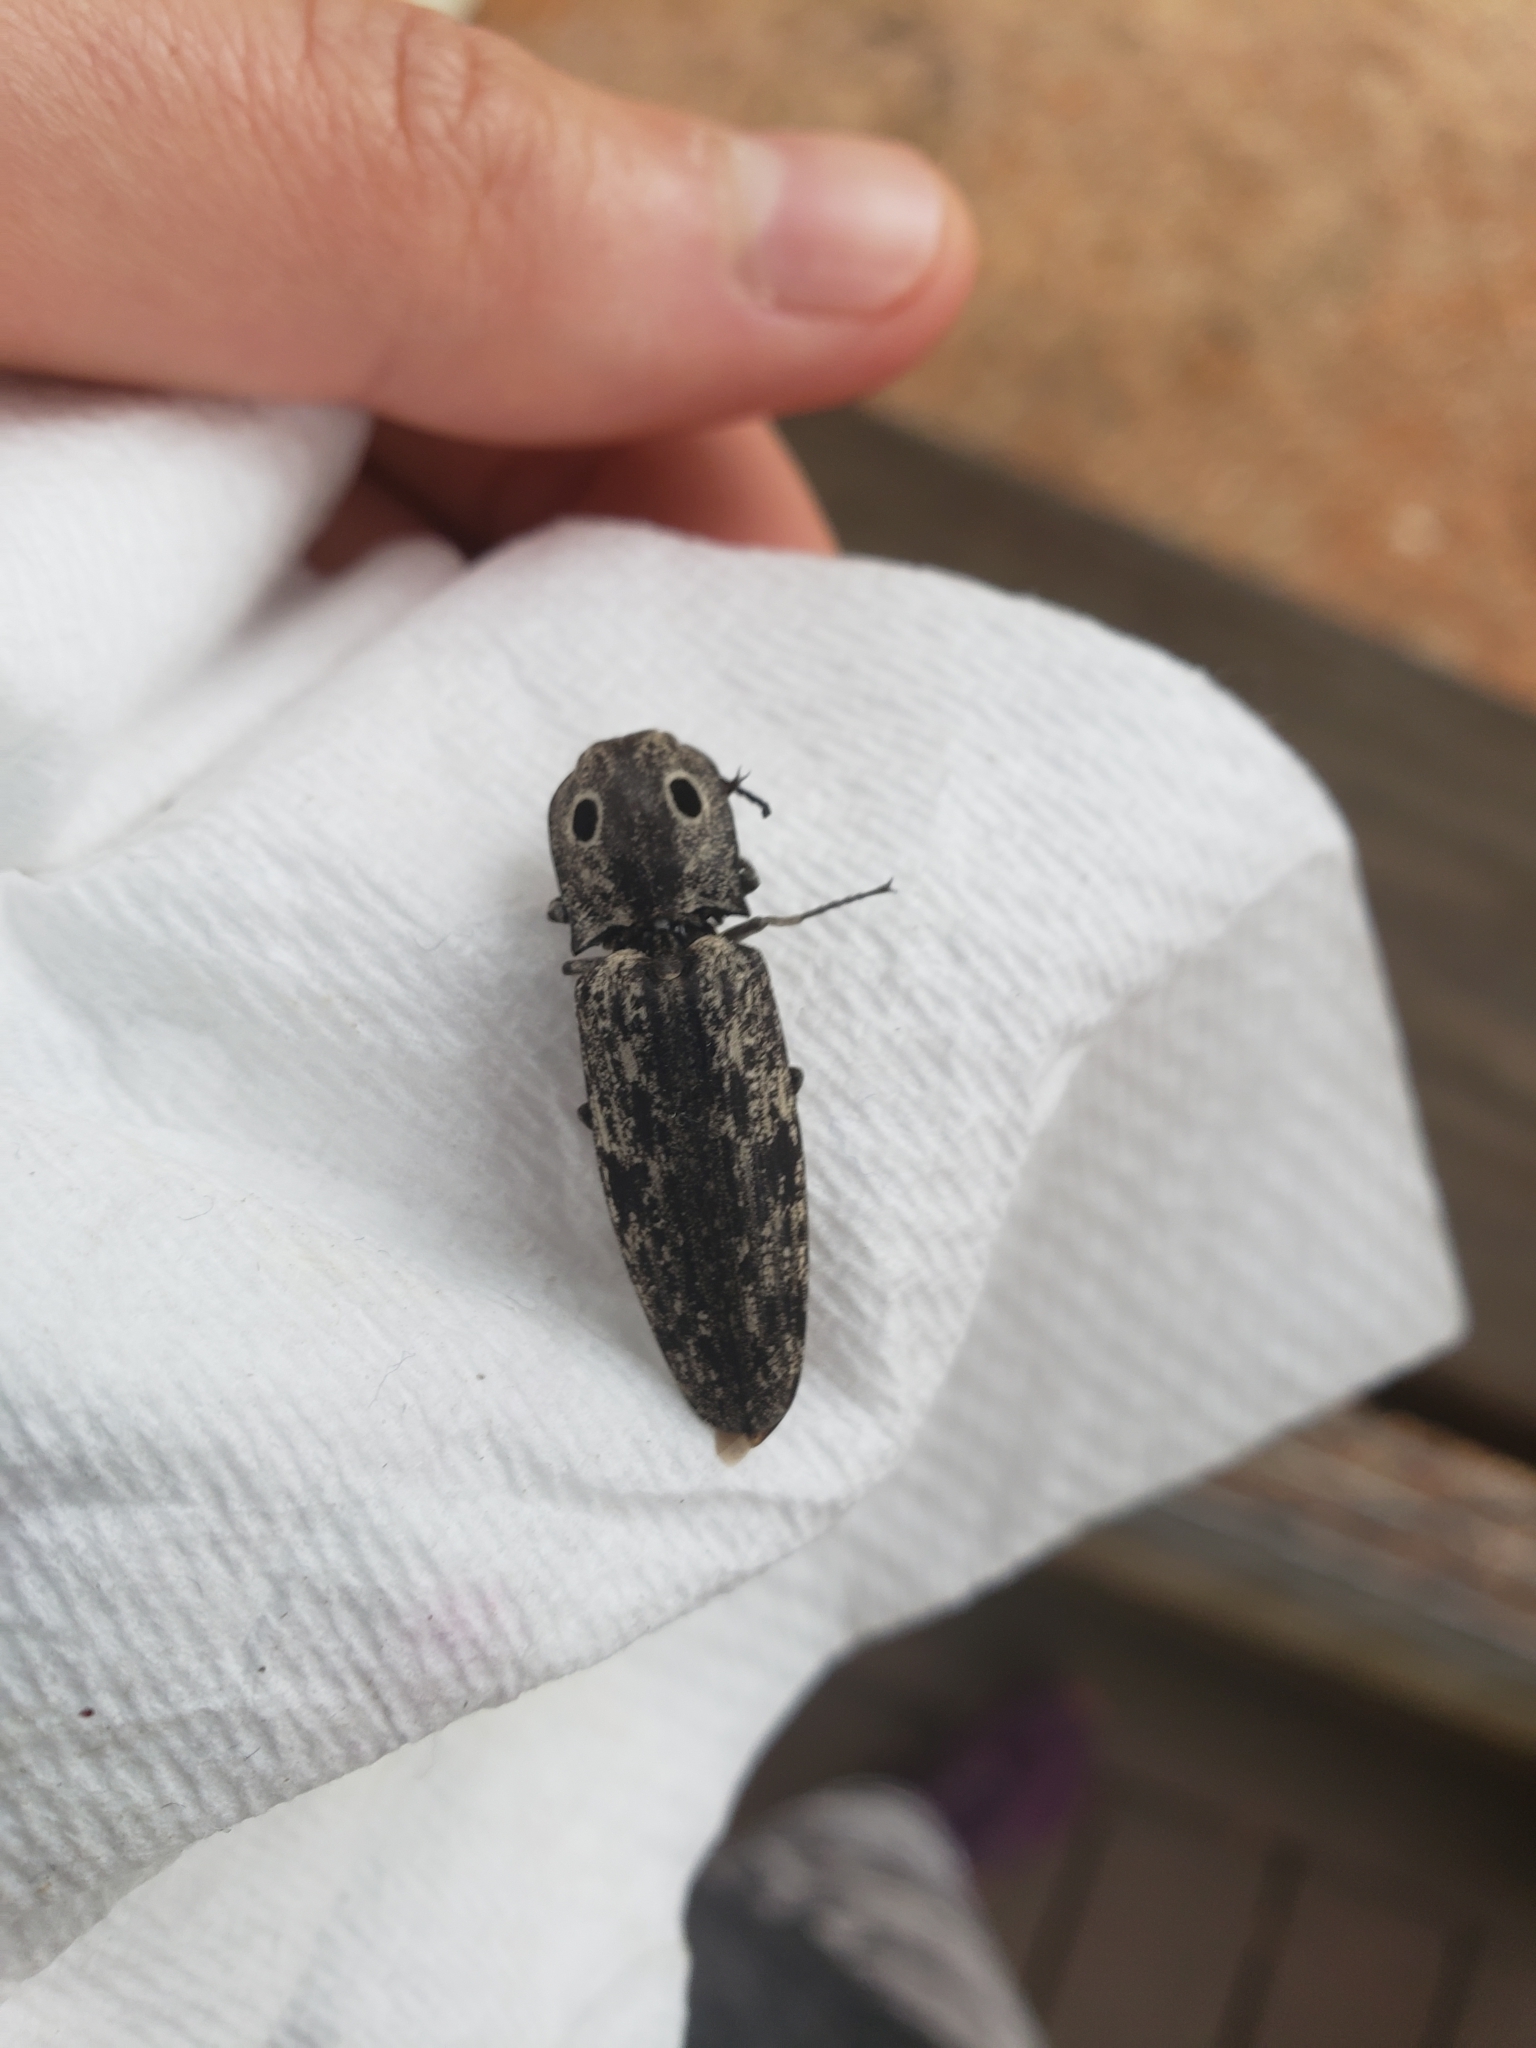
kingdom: Animalia
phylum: Arthropoda
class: Insecta
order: Coleoptera
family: Elateridae
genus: Alaus
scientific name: Alaus myops
